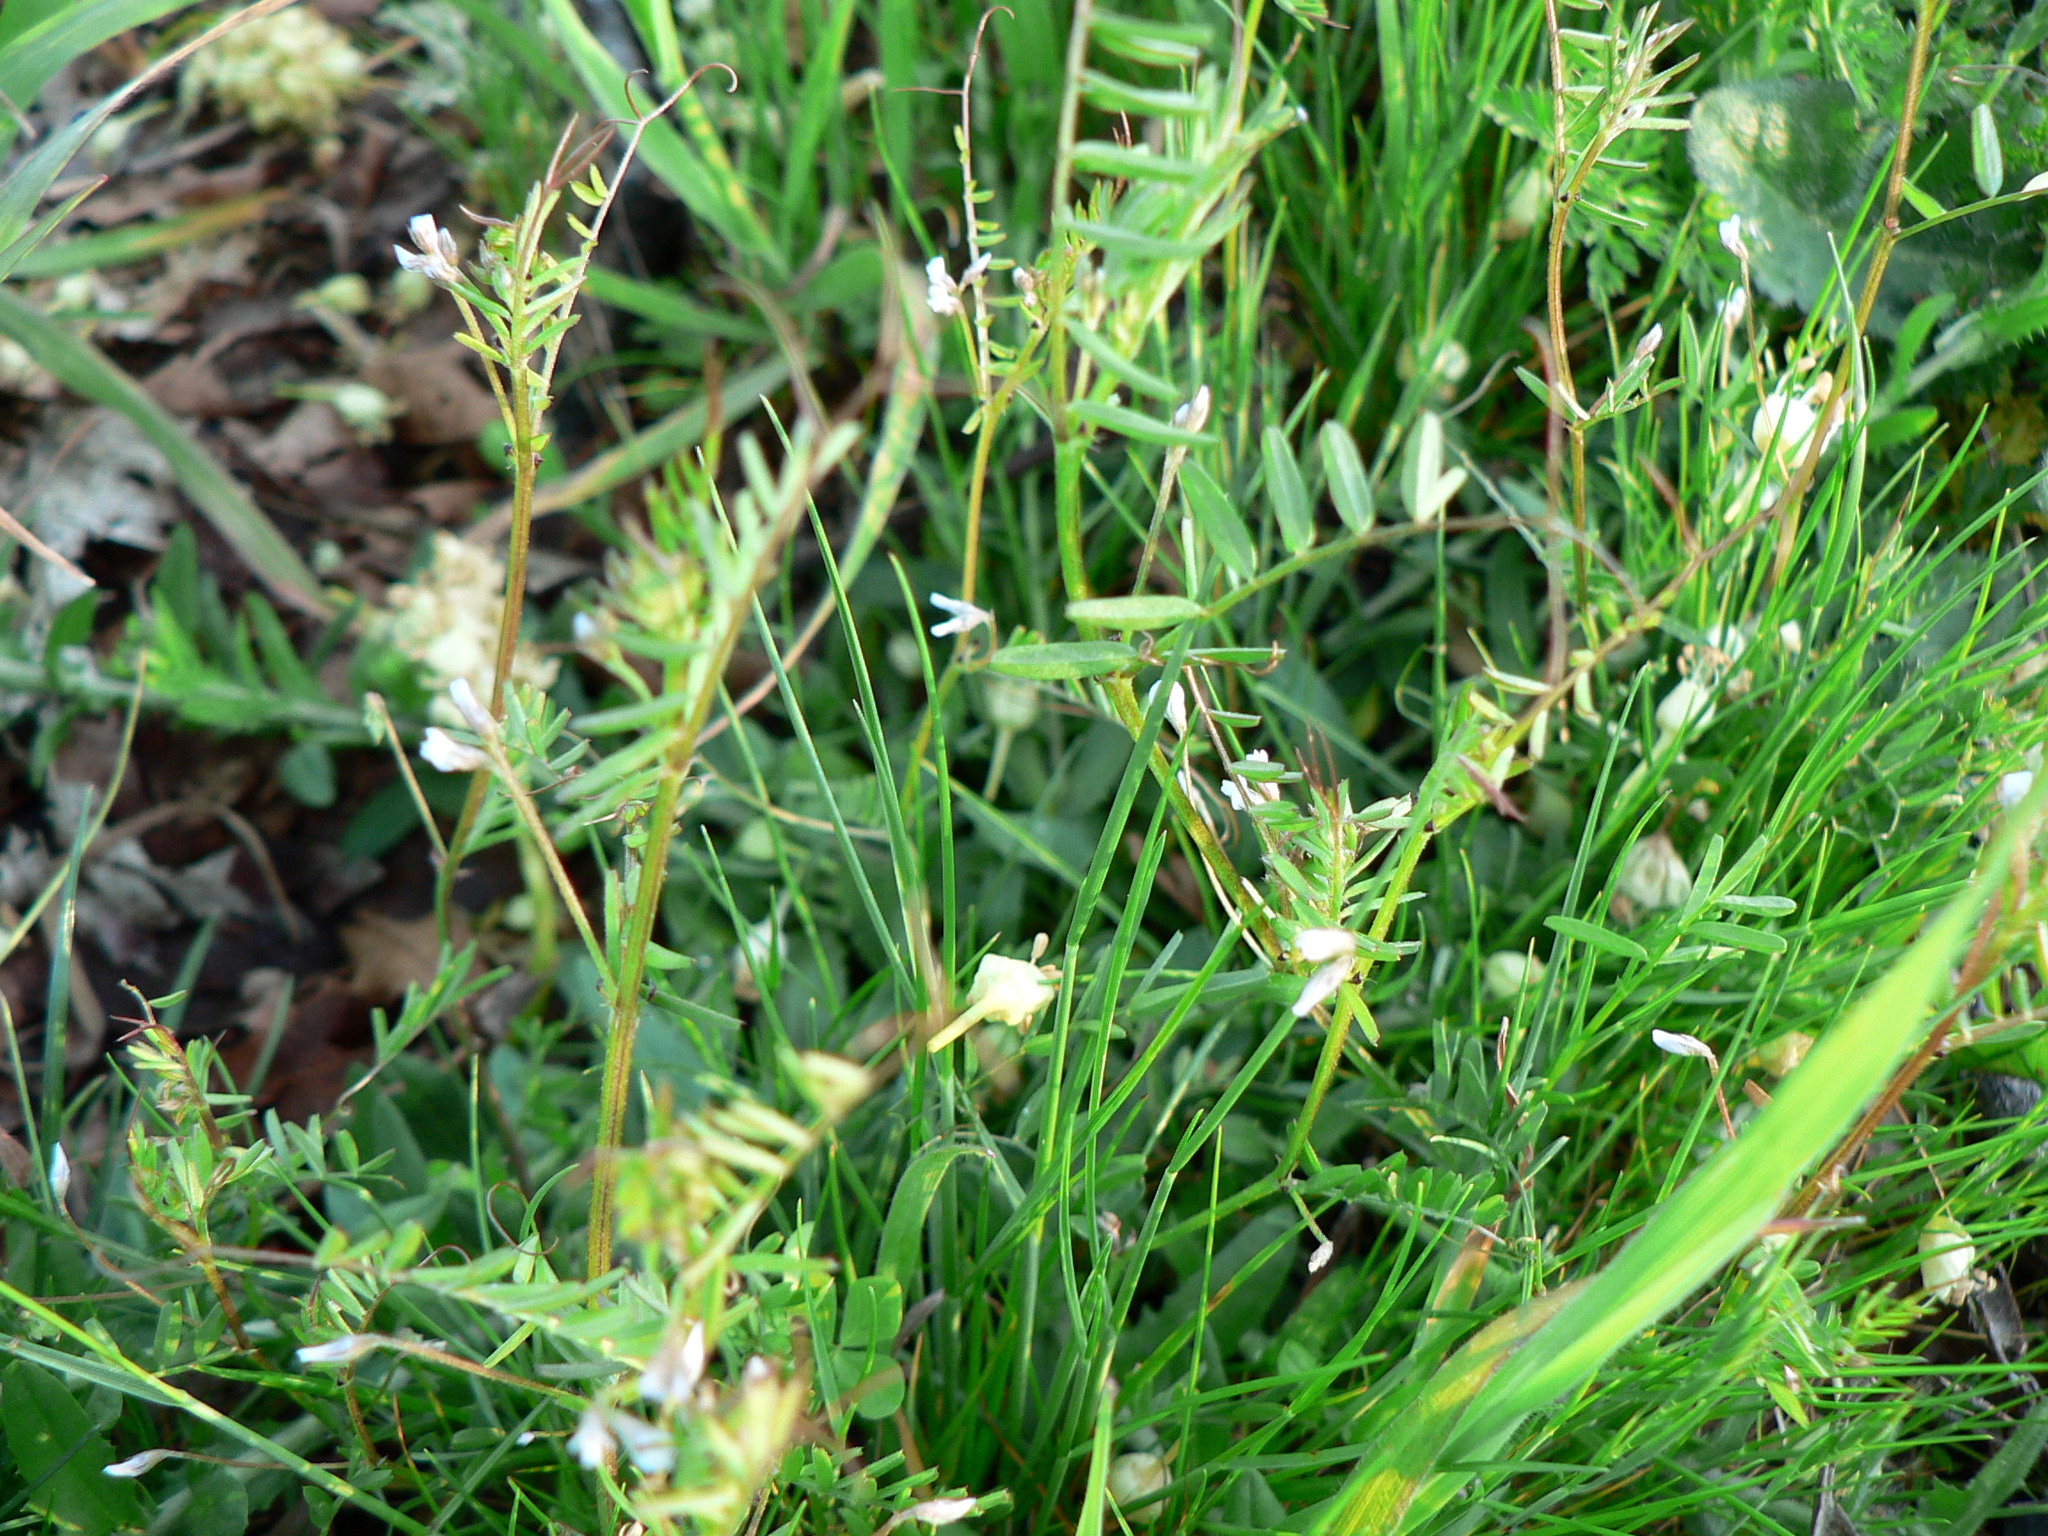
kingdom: Plantae
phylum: Tracheophyta
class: Magnoliopsida
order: Fabales
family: Fabaceae
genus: Vicia
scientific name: Vicia hirsuta
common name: Tiny vetch
